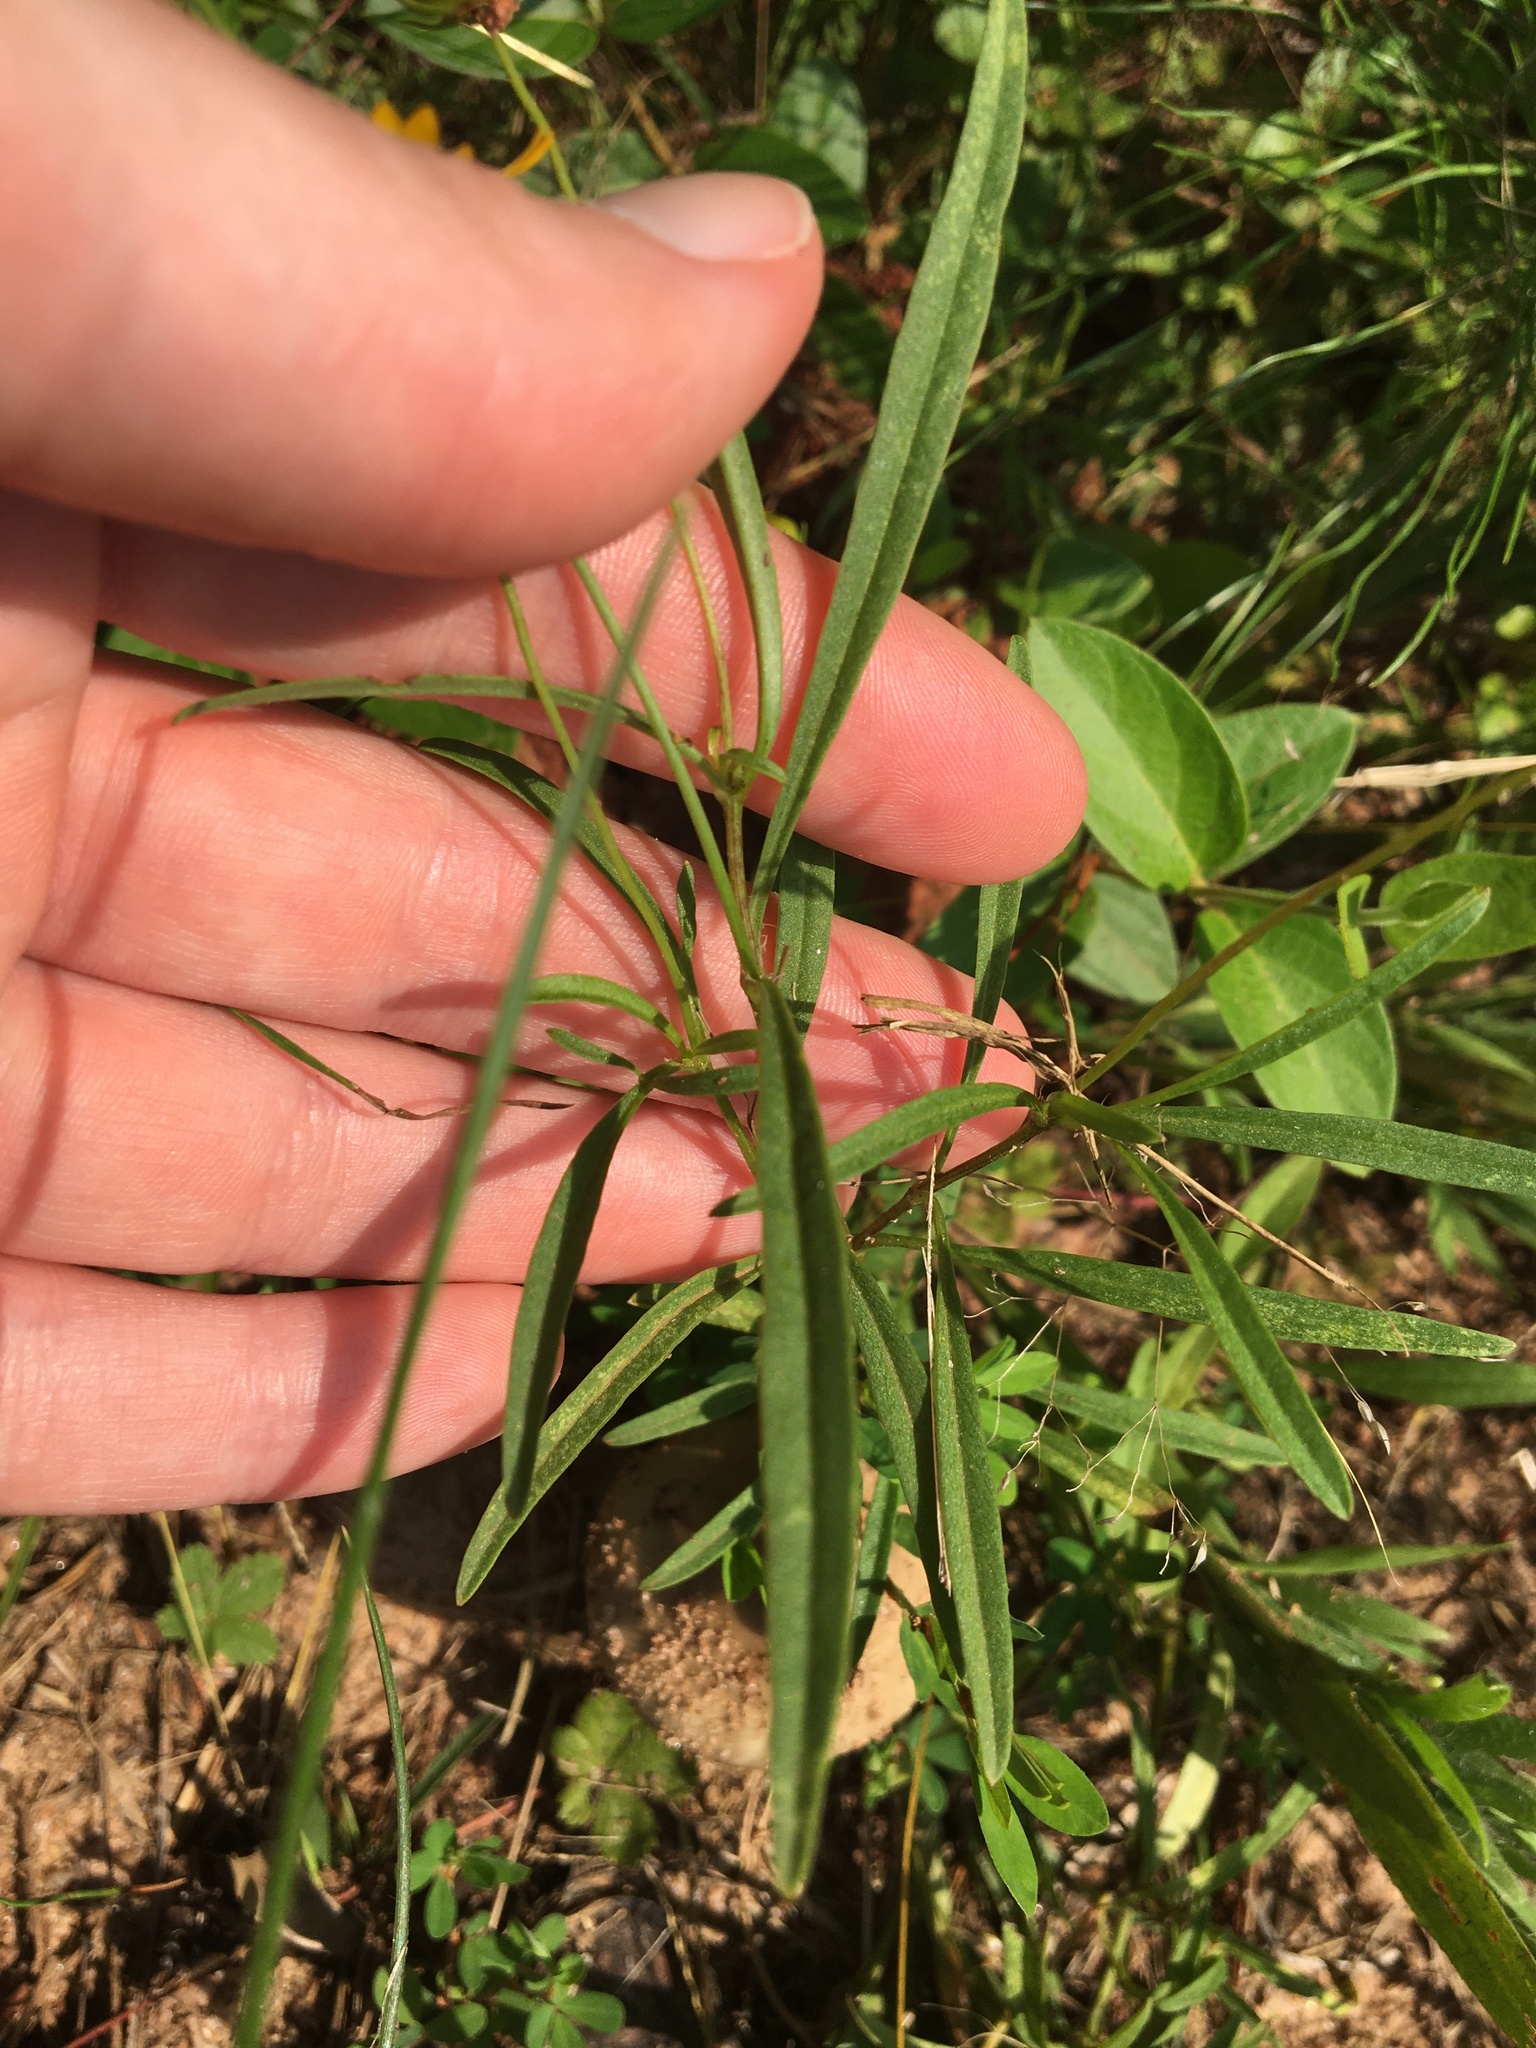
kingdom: Plantae
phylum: Tracheophyta
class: Magnoliopsida
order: Asterales
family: Asteraceae
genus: Coreopsis
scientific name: Coreopsis lanceolata
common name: Garden coreopsis
